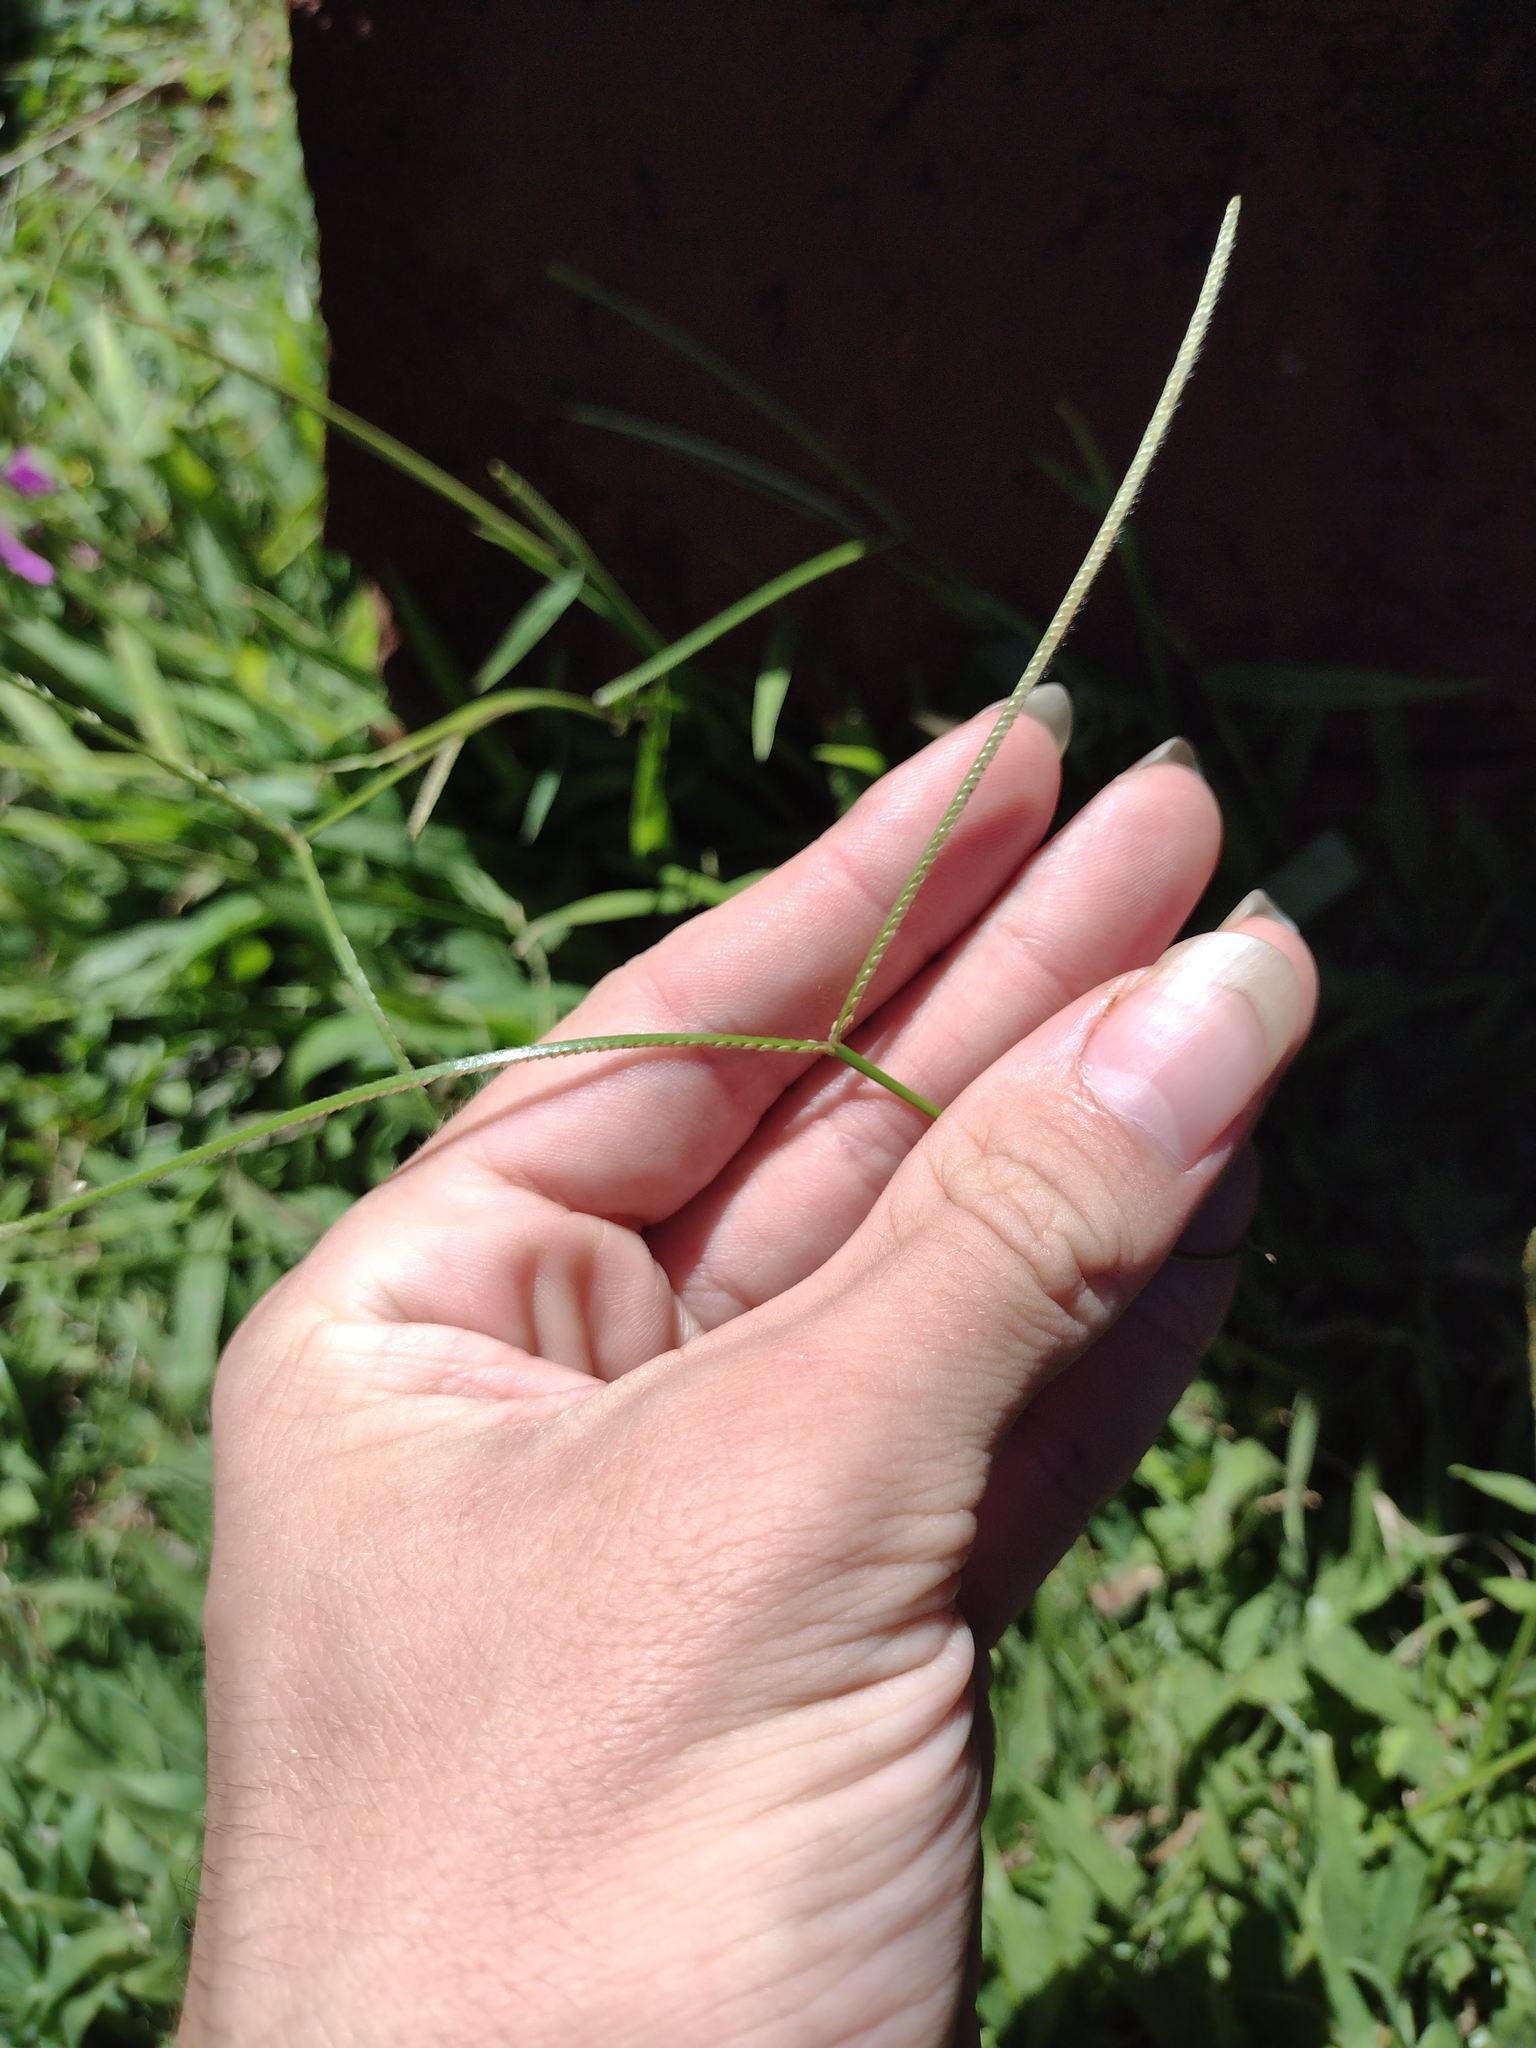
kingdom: Plantae
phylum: Tracheophyta
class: Liliopsida
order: Poales
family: Poaceae
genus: Paspalum
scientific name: Paspalum conjugatum
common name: Hilograss
